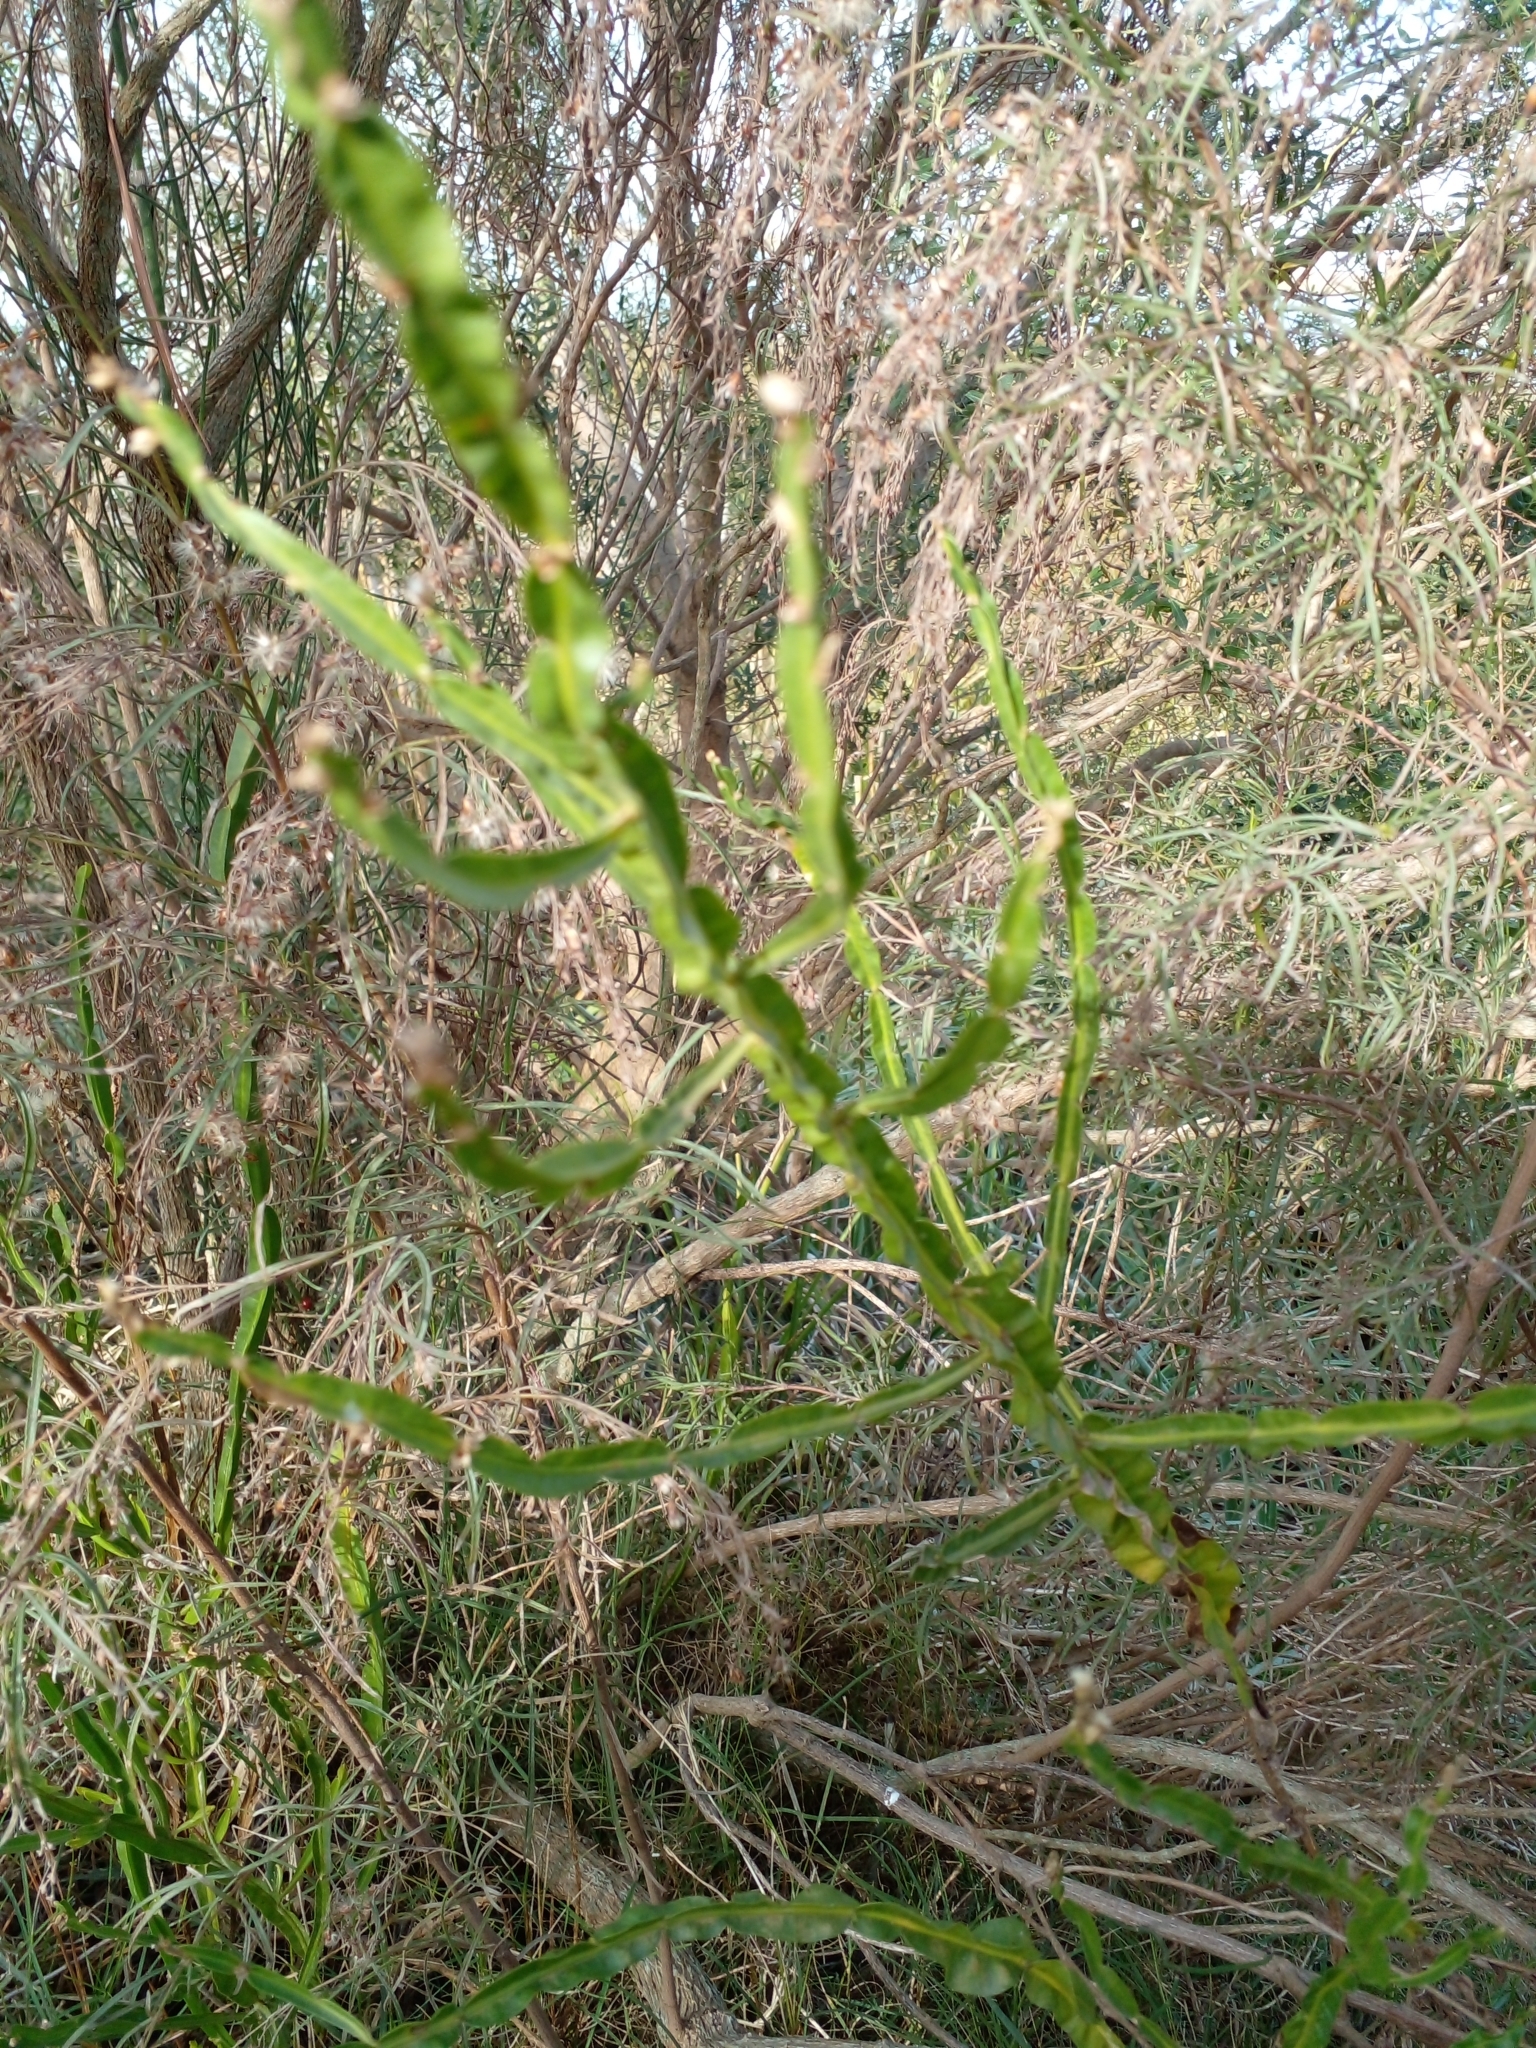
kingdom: Plantae
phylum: Tracheophyta
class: Magnoliopsida
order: Asterales
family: Asteraceae
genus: Baccharis
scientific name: Baccharis trimera
